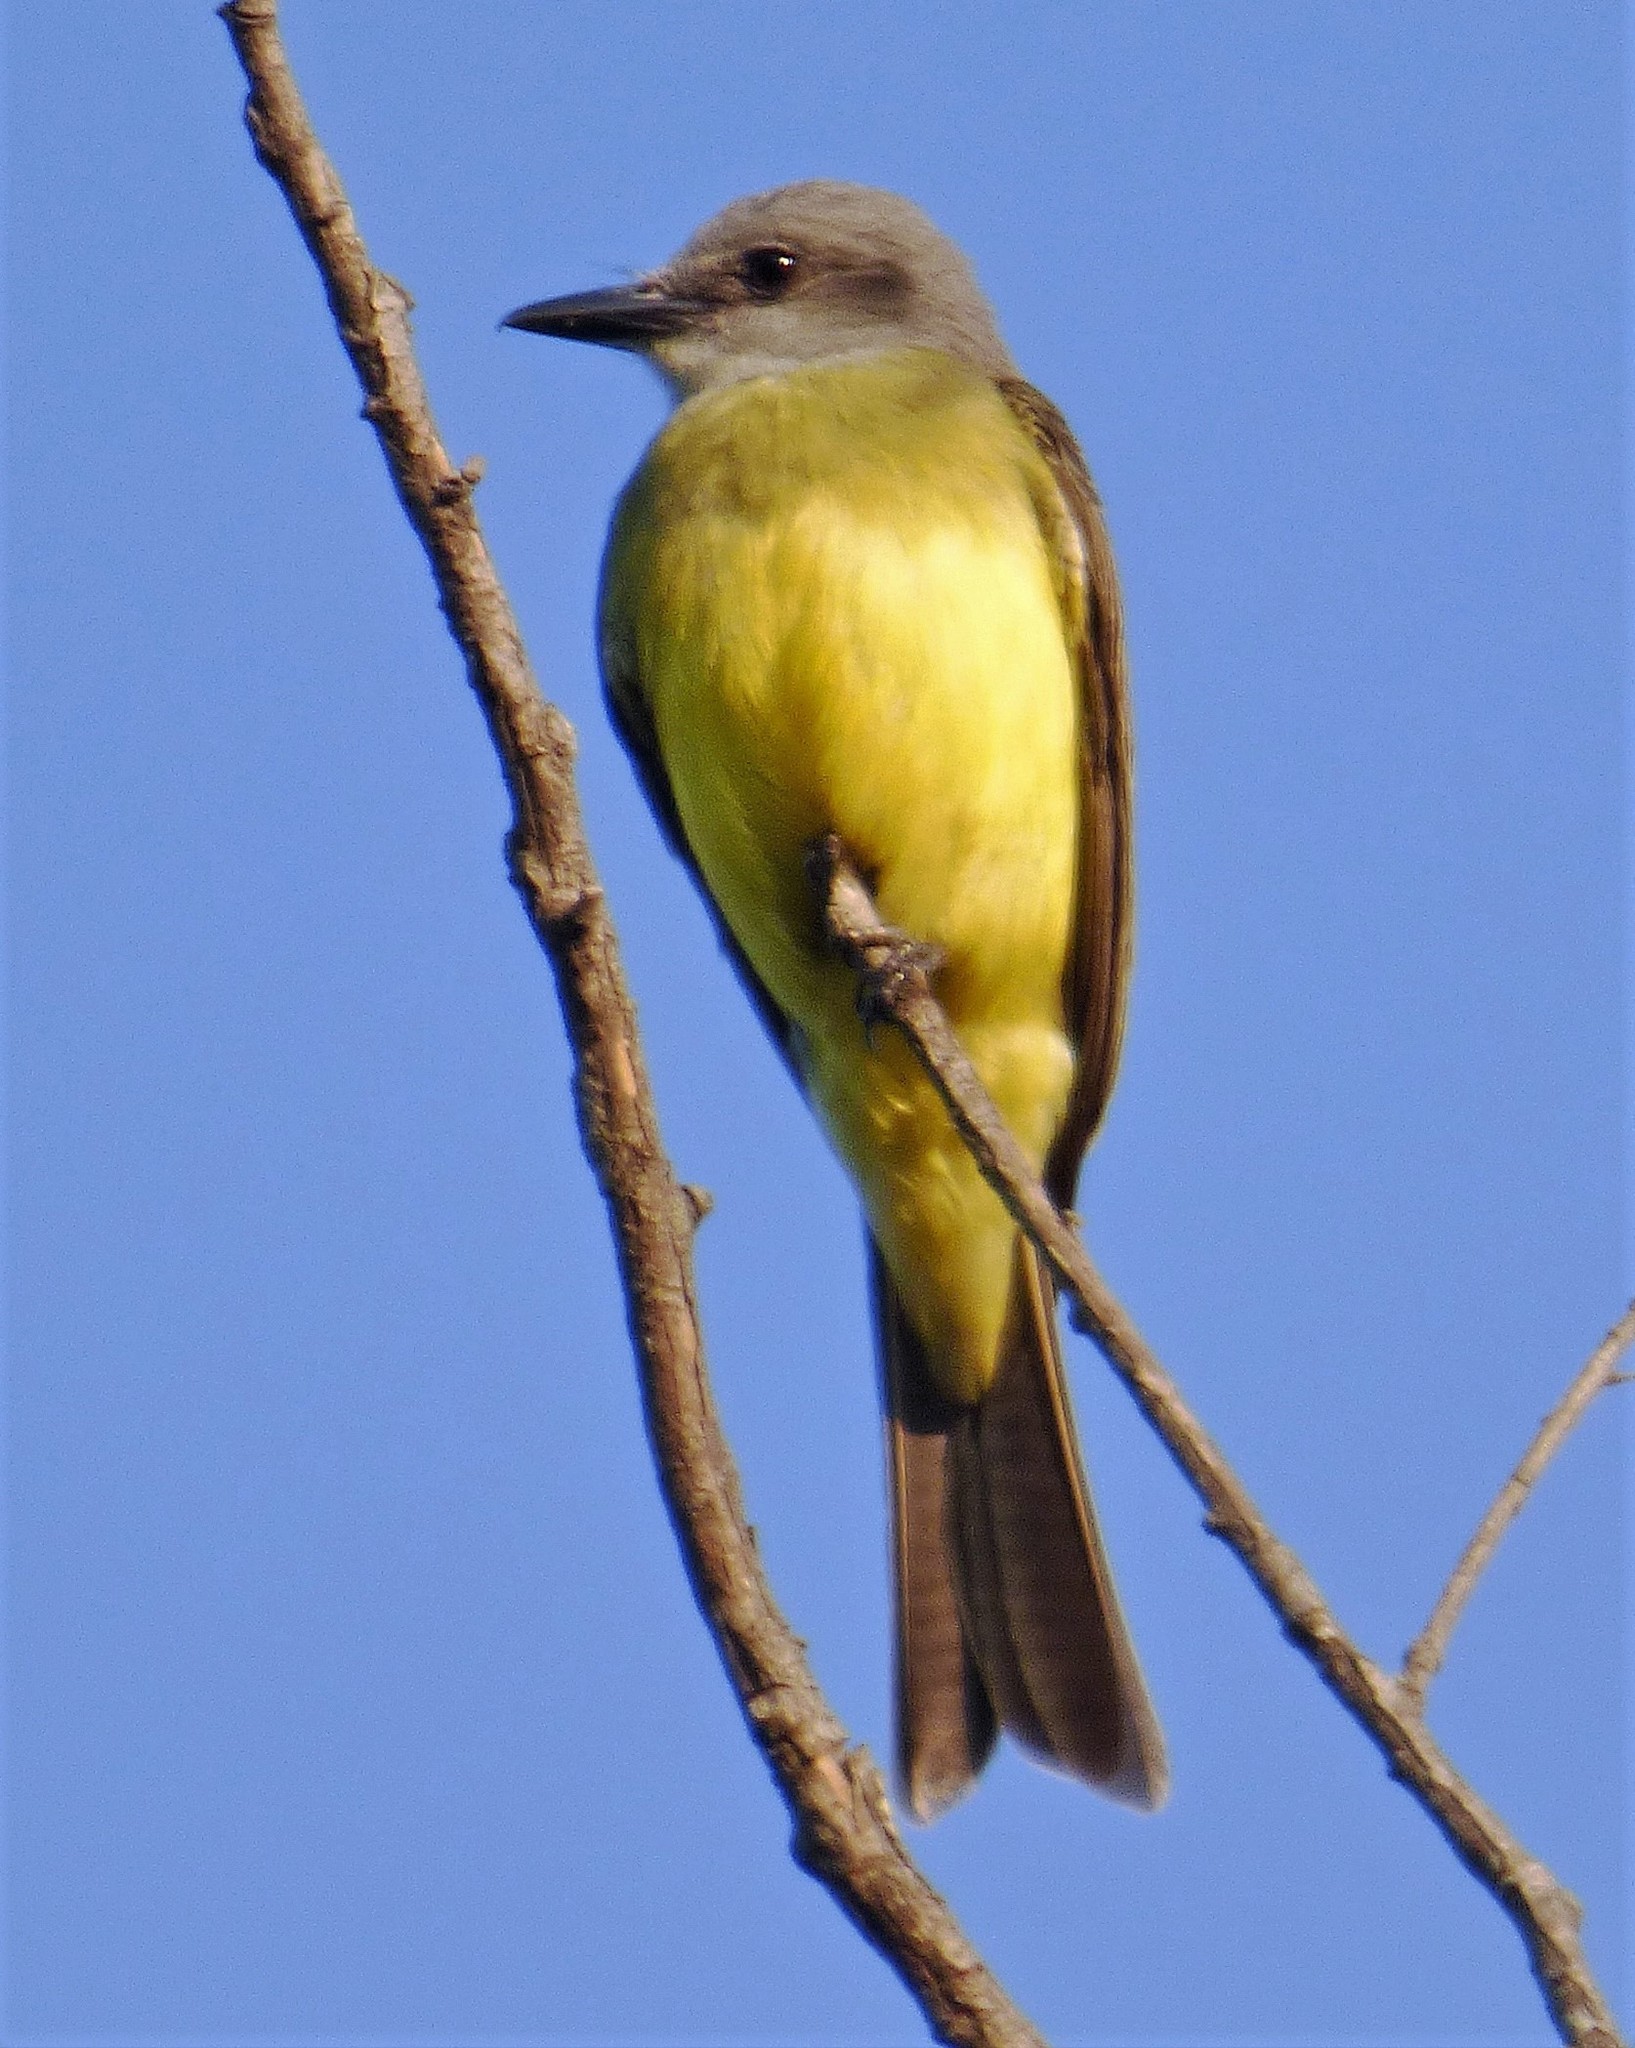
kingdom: Animalia
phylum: Chordata
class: Aves
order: Passeriformes
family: Tyrannidae
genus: Tyrannus
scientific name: Tyrannus melancholicus
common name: Tropical kingbird
